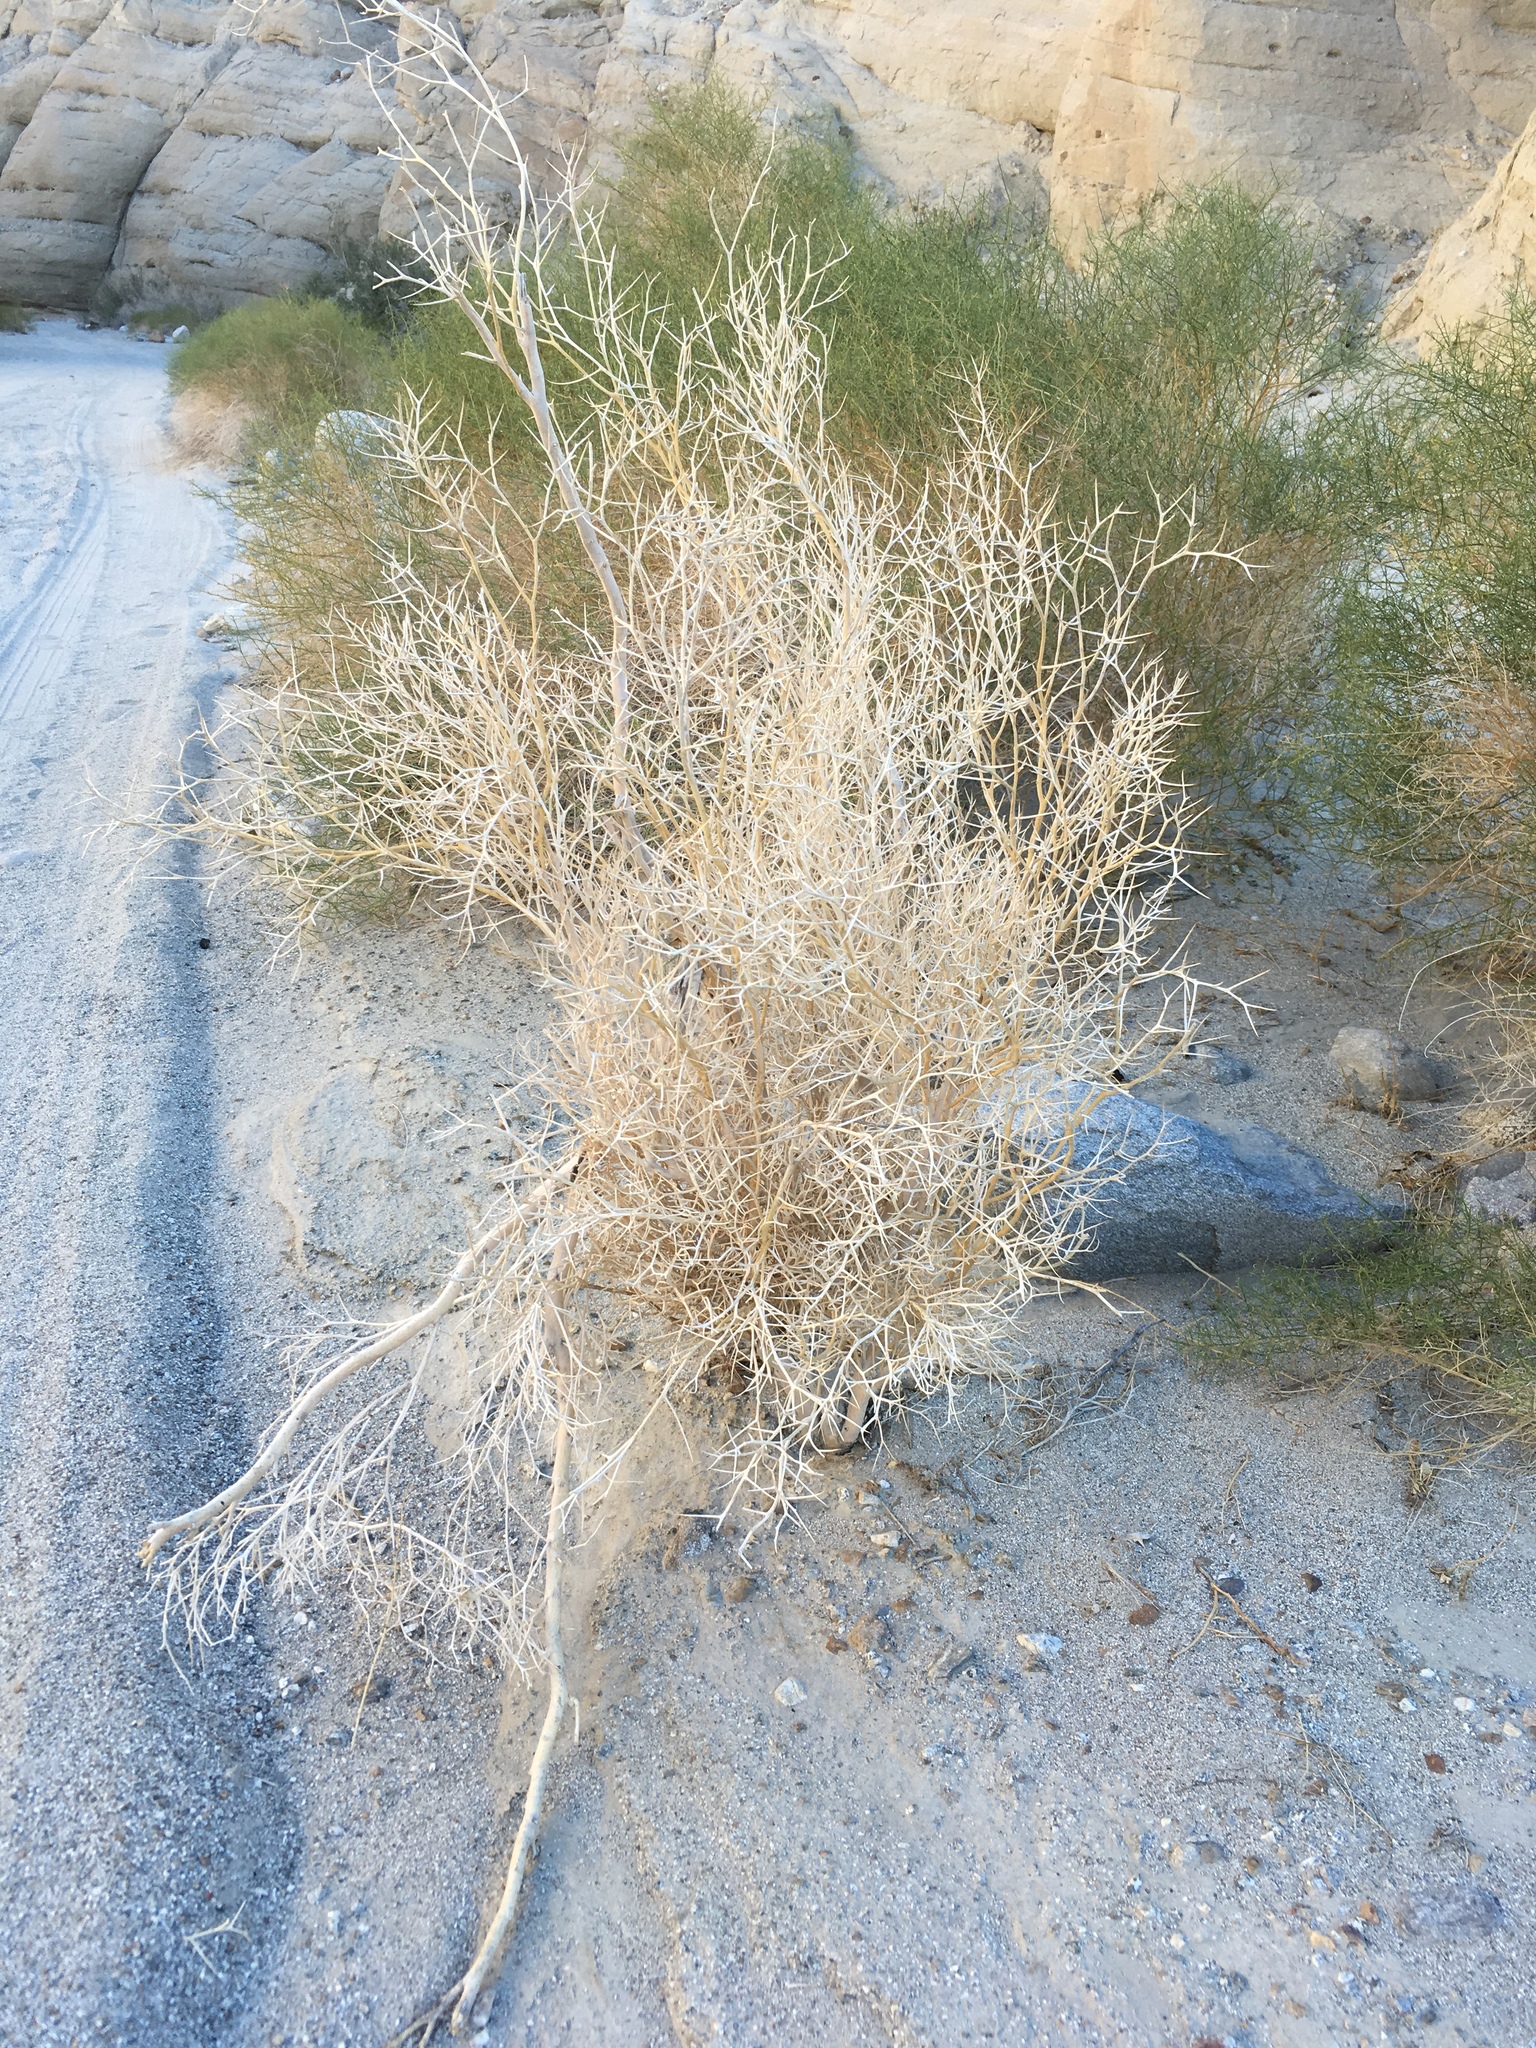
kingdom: Plantae
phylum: Tracheophyta
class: Magnoliopsida
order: Fabales
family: Fabaceae
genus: Psorothamnus
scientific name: Psorothamnus spinosus
